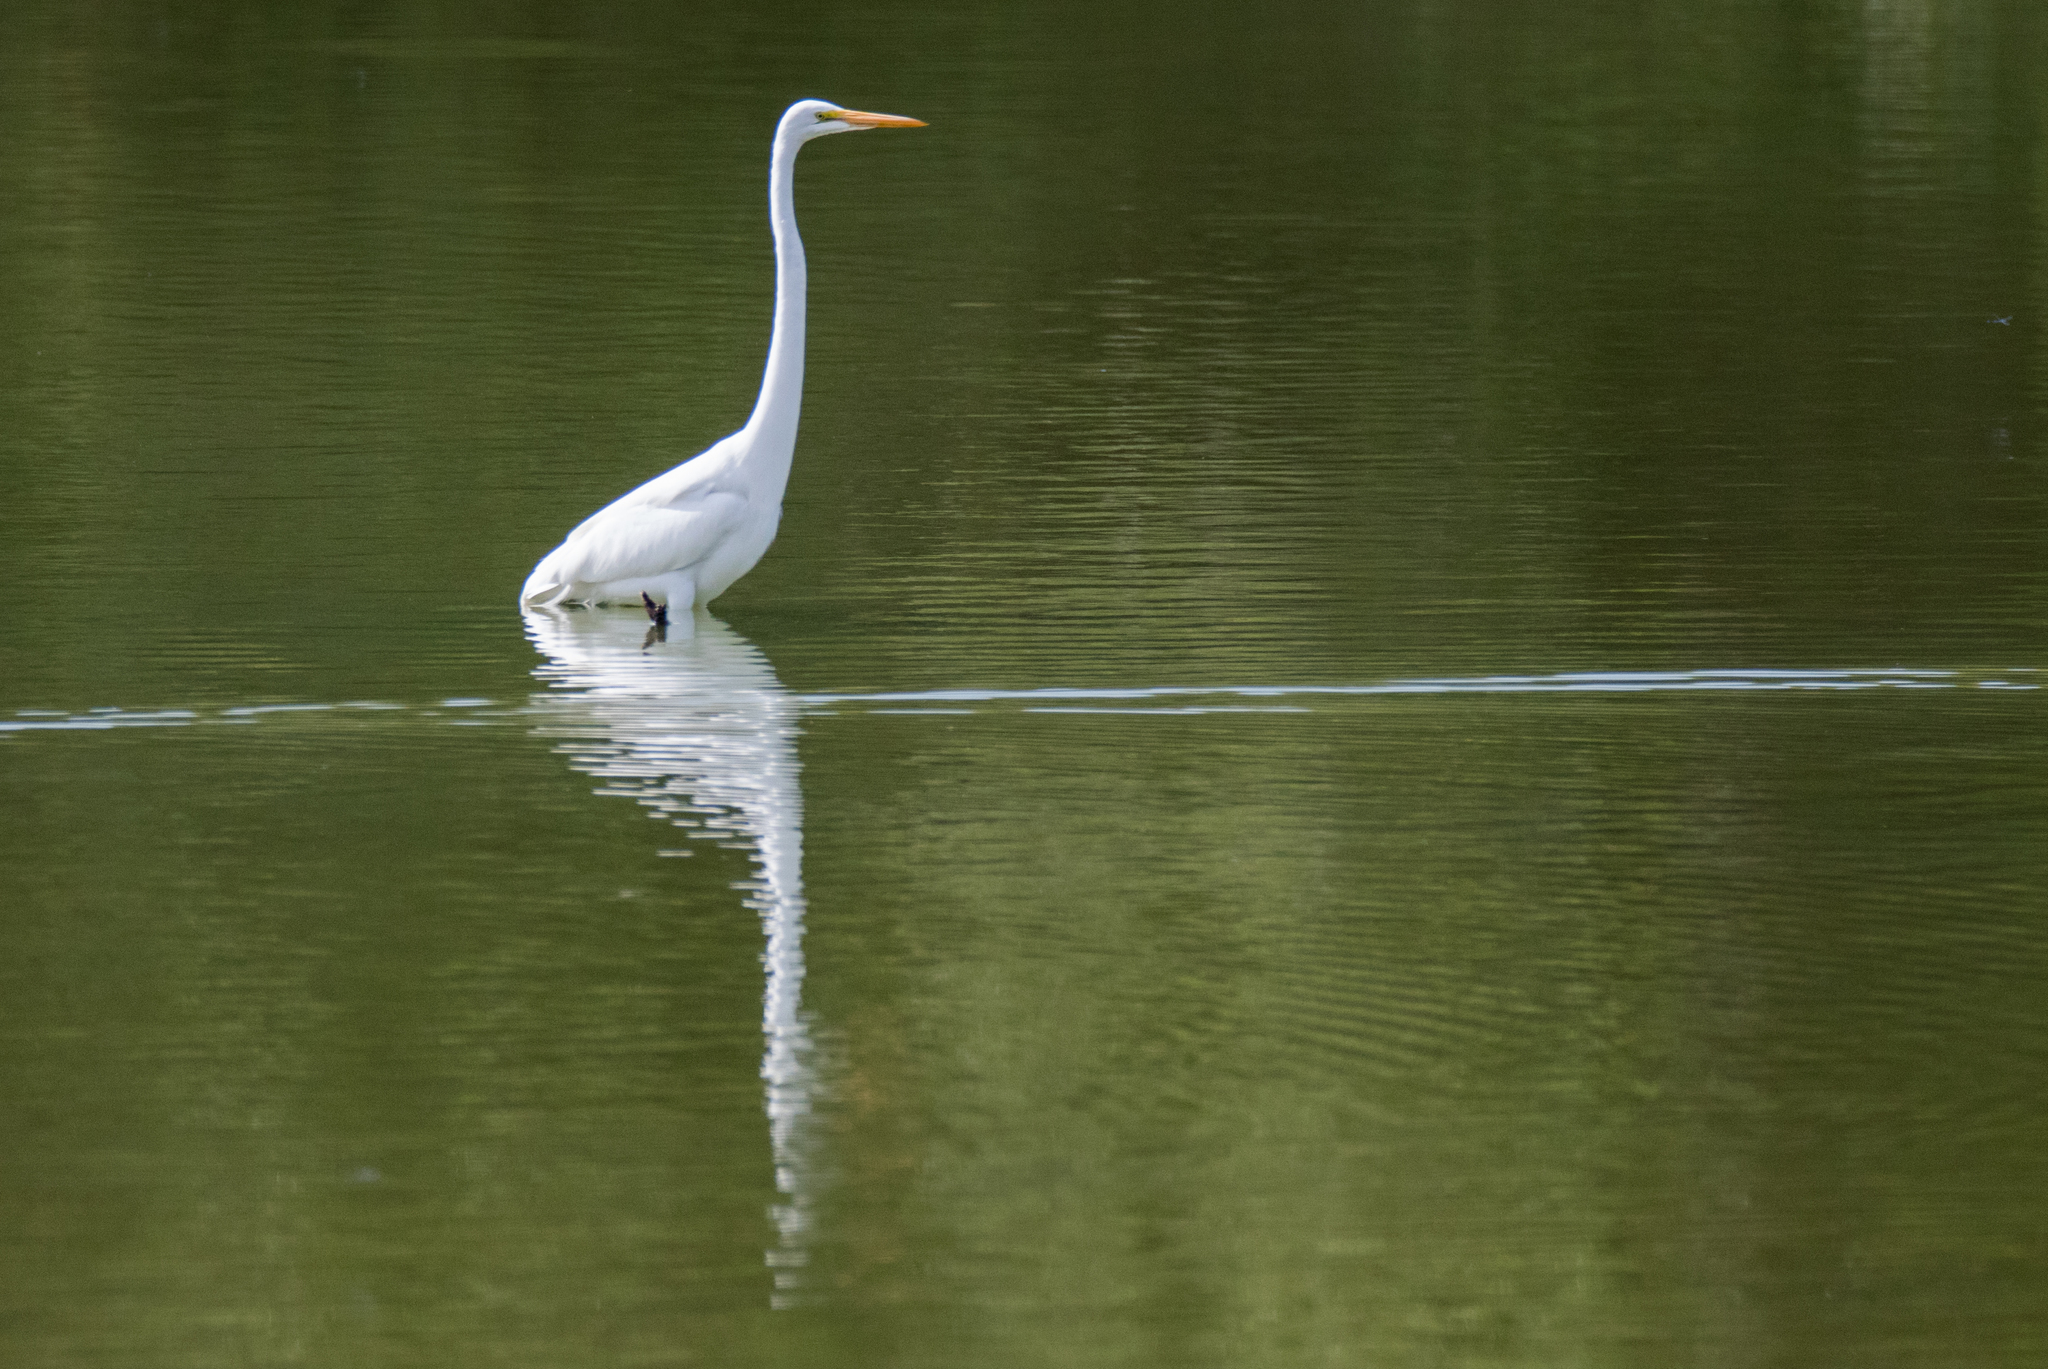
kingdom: Animalia
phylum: Chordata
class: Aves
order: Pelecaniformes
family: Ardeidae
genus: Ardea
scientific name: Ardea alba
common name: Great egret
